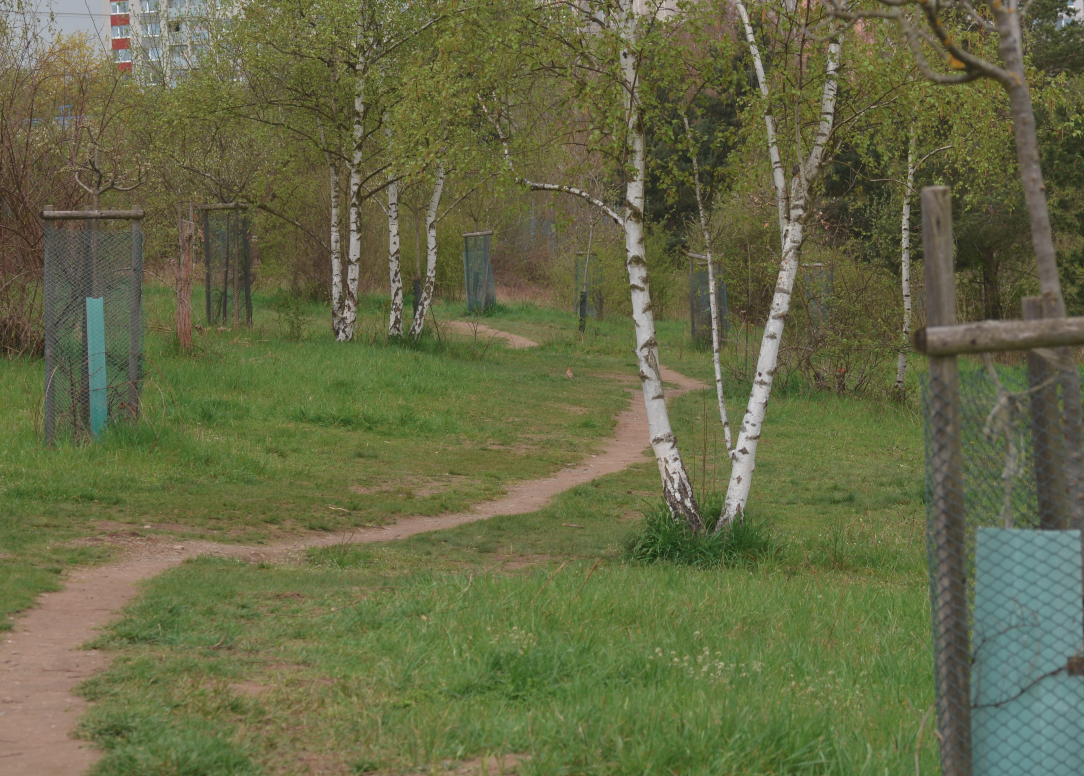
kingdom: Animalia
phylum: Chordata
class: Aves
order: Bucerotiformes
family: Upupidae
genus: Upupa
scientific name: Upupa epops
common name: Eurasian hoopoe
